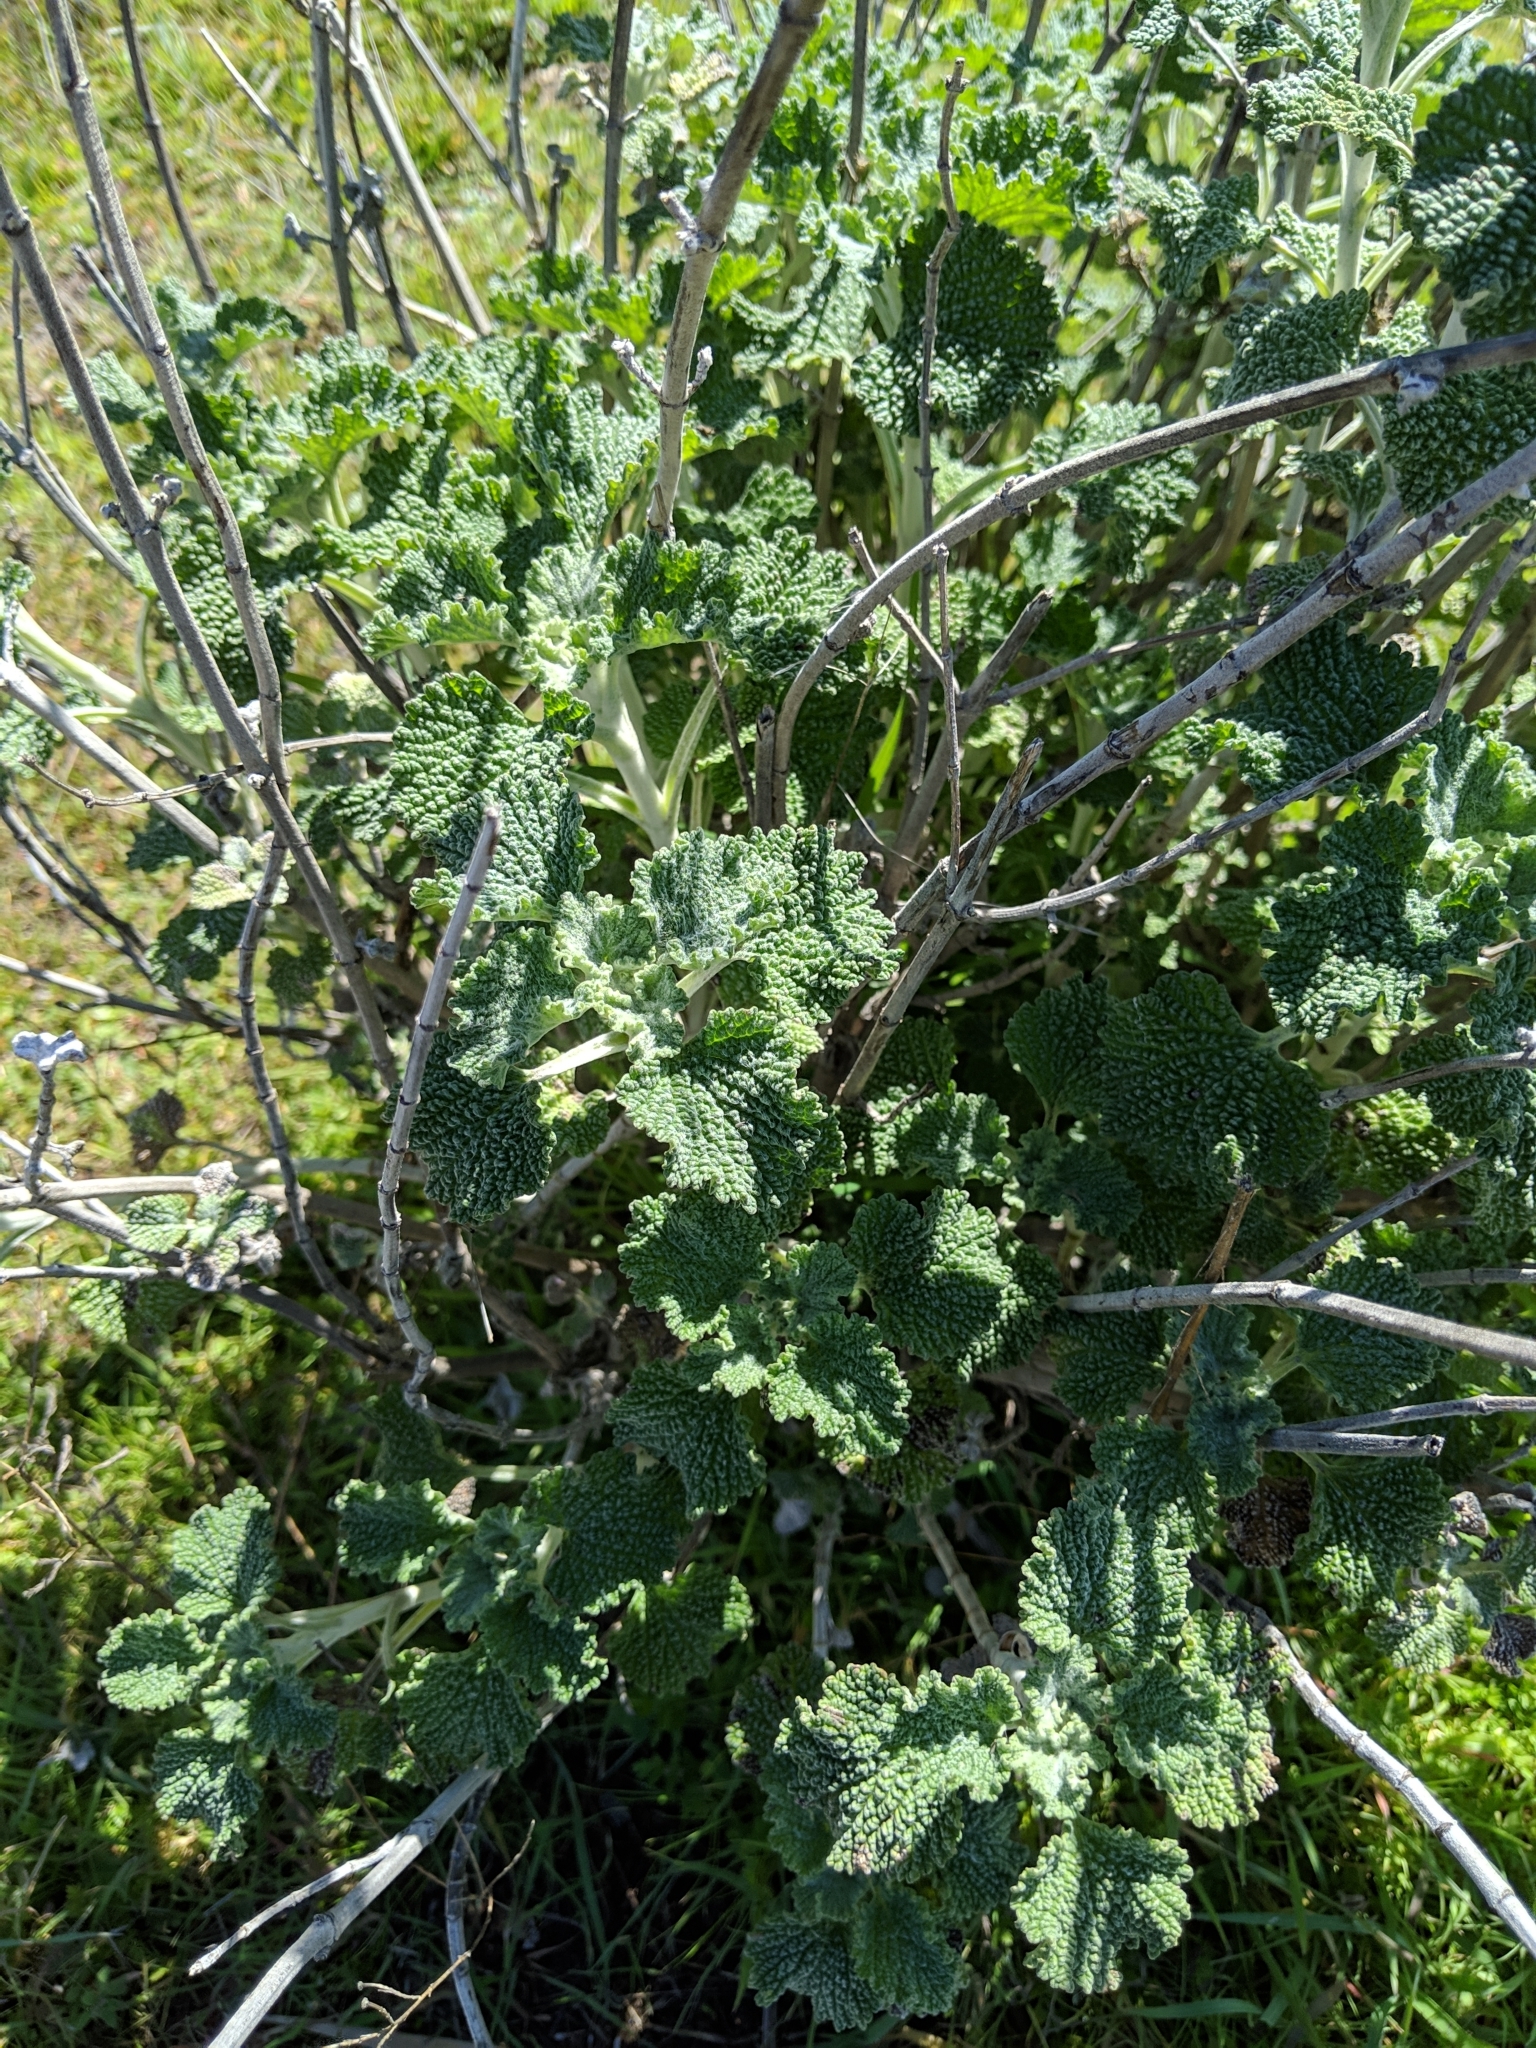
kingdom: Plantae
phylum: Tracheophyta
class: Magnoliopsida
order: Lamiales
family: Lamiaceae
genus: Marrubium
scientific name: Marrubium vulgare
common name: Horehound
